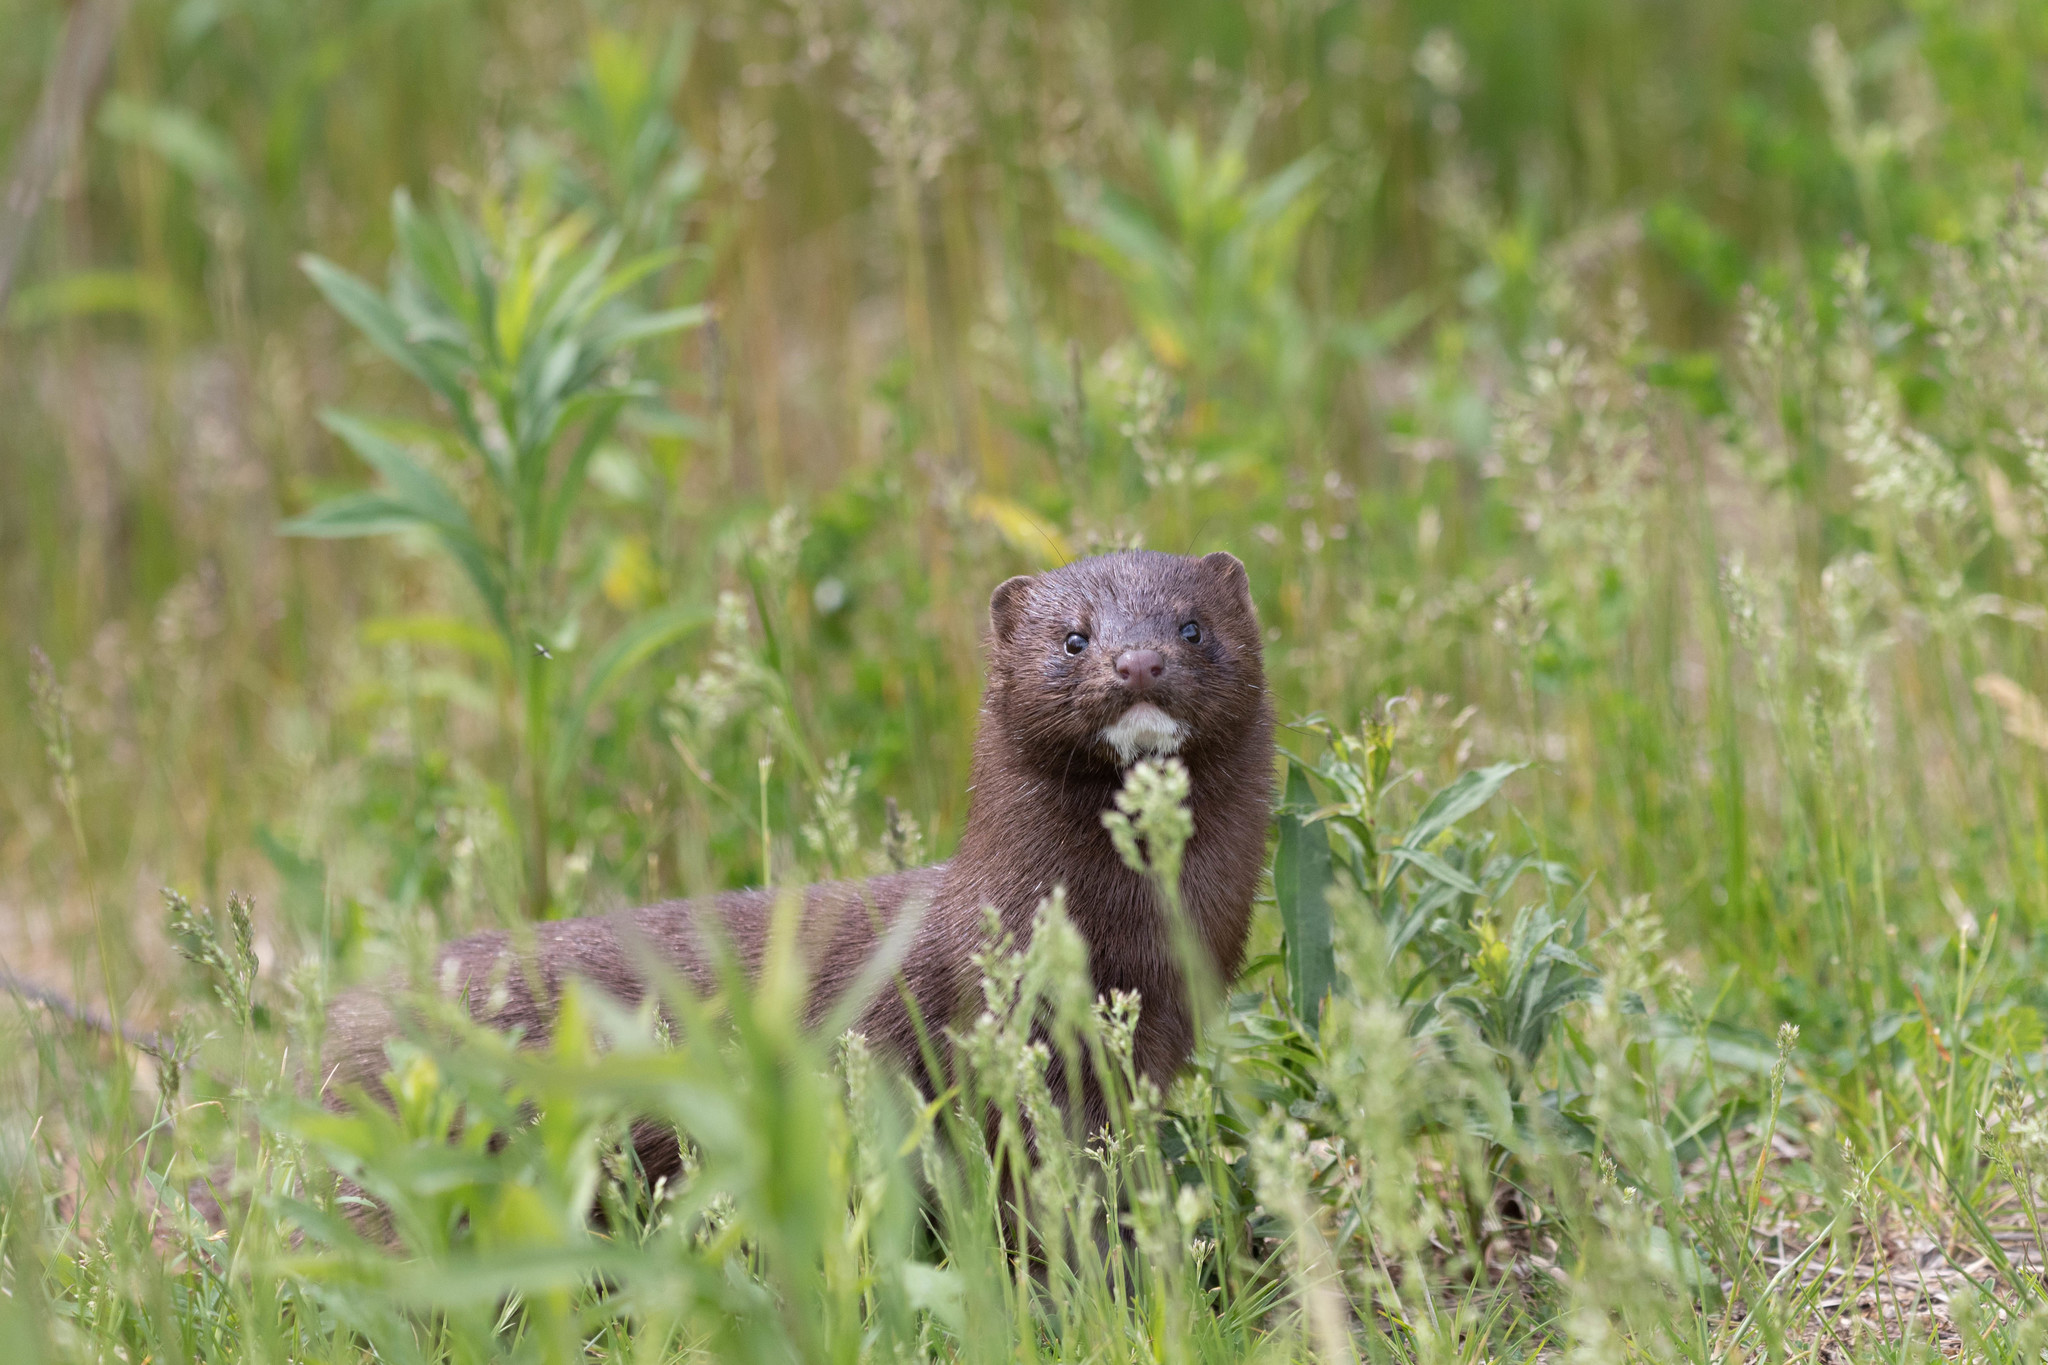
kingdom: Animalia
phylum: Chordata
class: Mammalia
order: Carnivora
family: Mustelidae
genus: Mustela
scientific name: Mustela
